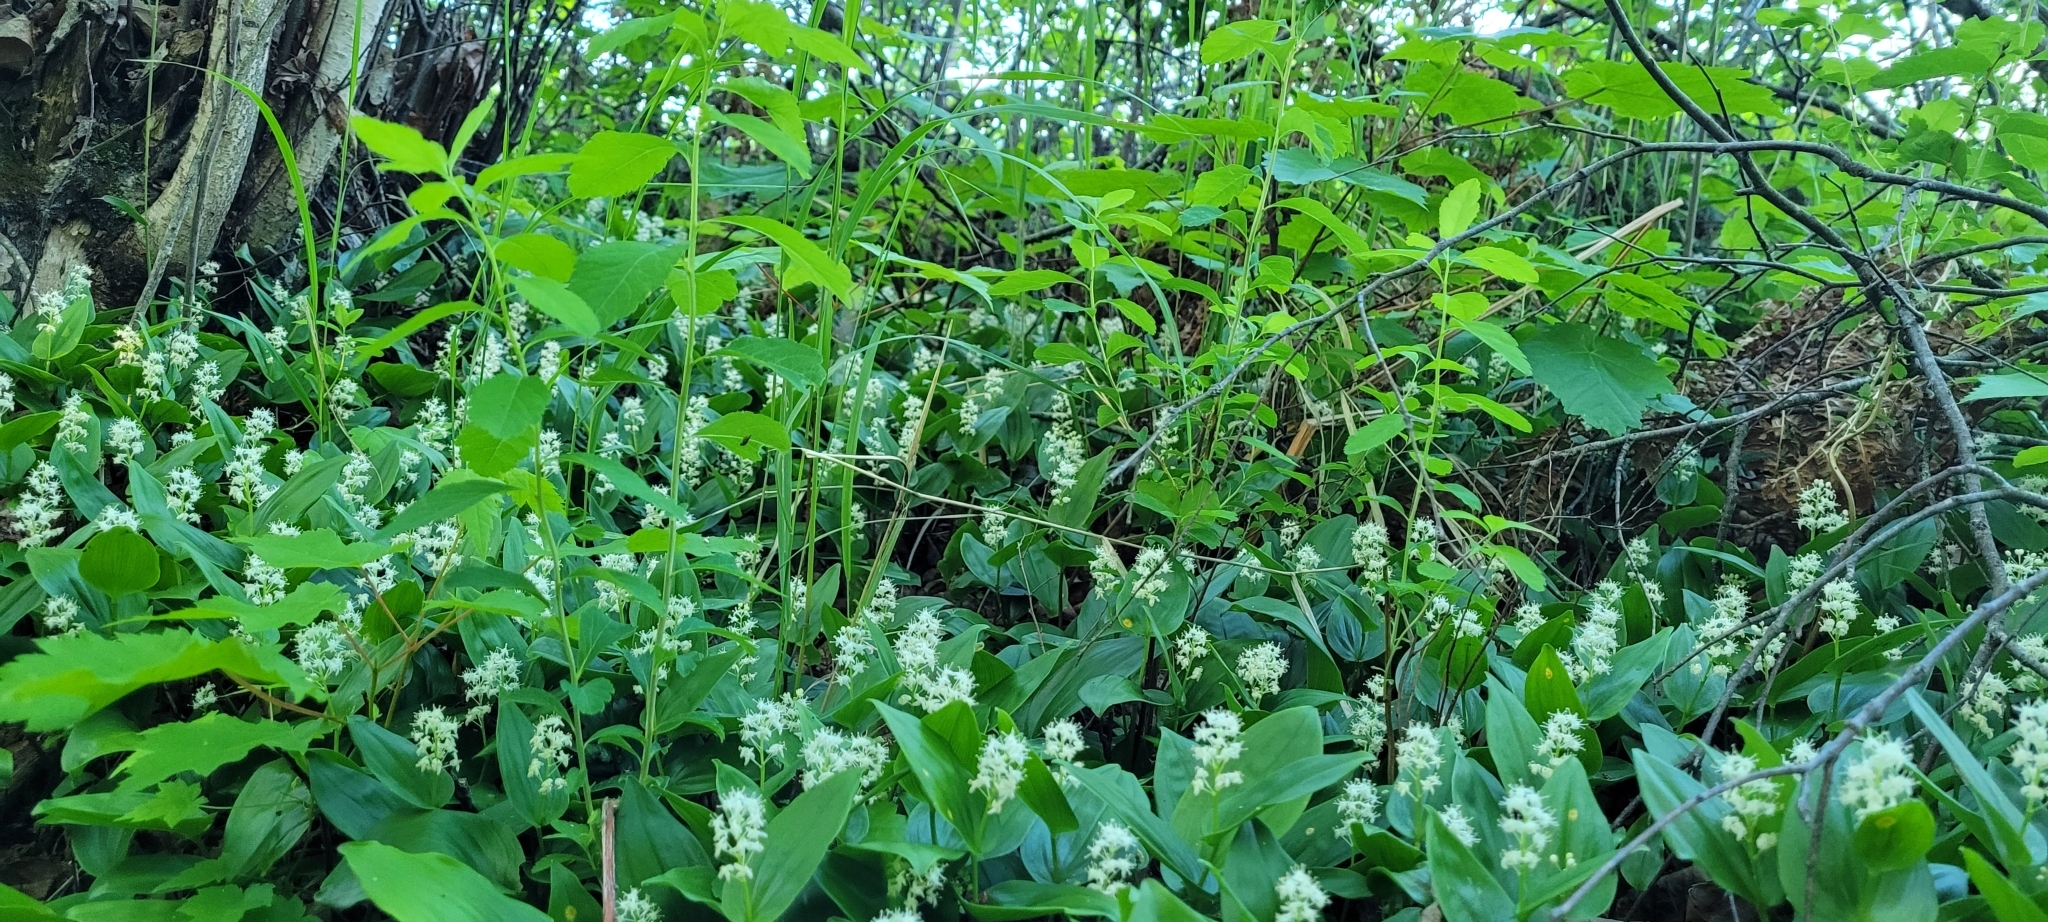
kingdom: Plantae
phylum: Tracheophyta
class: Liliopsida
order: Asparagales
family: Asparagaceae
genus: Maianthemum
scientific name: Maianthemum canadense
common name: False lily-of-the-valley
